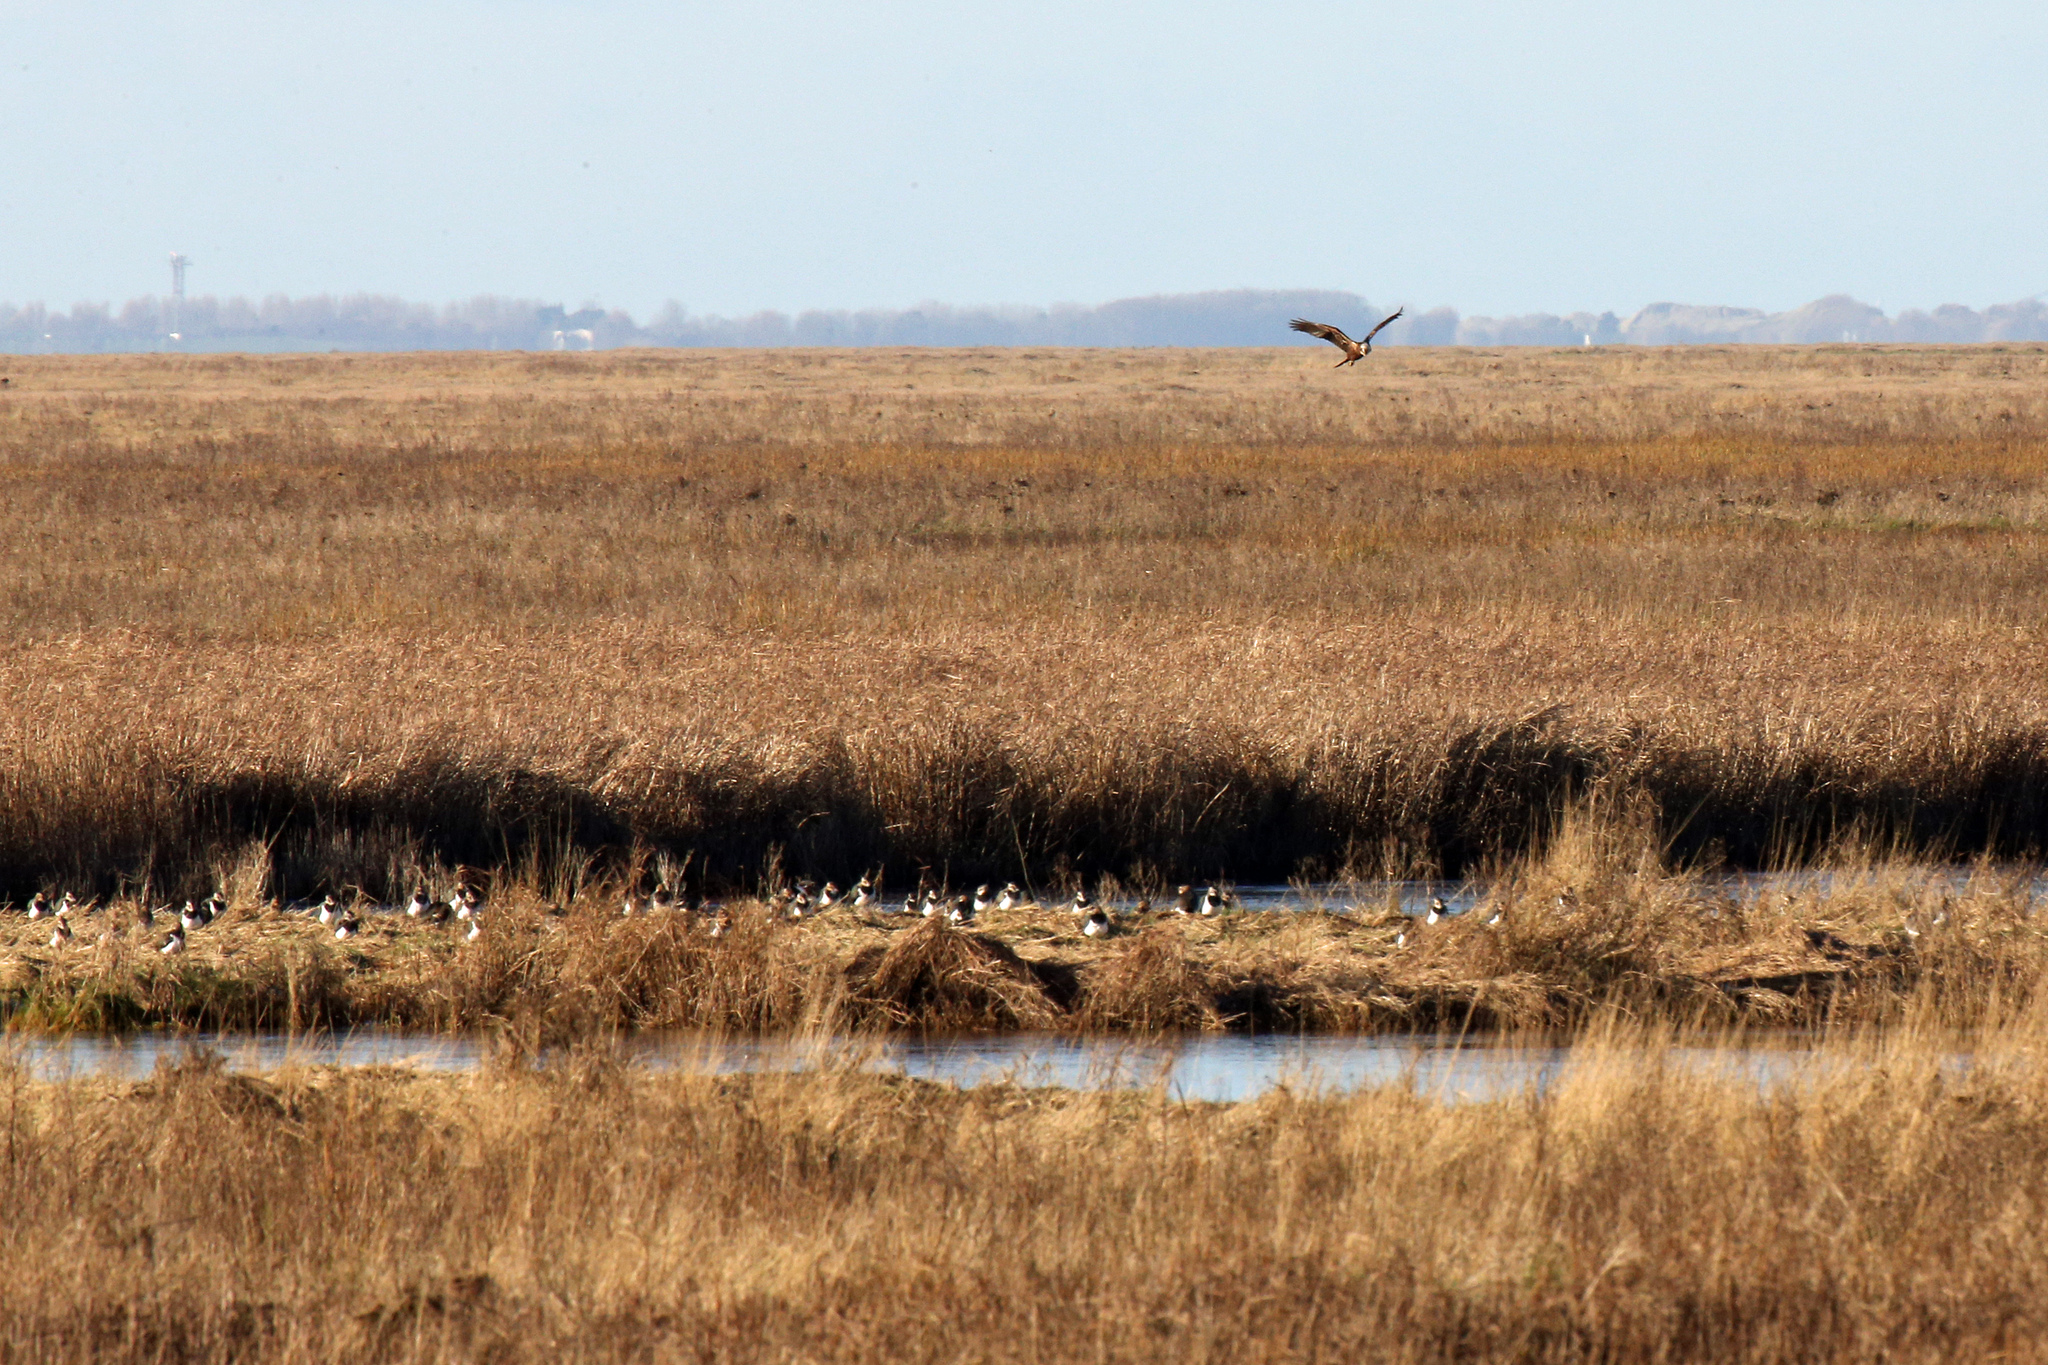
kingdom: Animalia
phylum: Chordata
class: Aves
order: Charadriiformes
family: Charadriidae
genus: Vanellus
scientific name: Vanellus vanellus
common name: Northern lapwing
